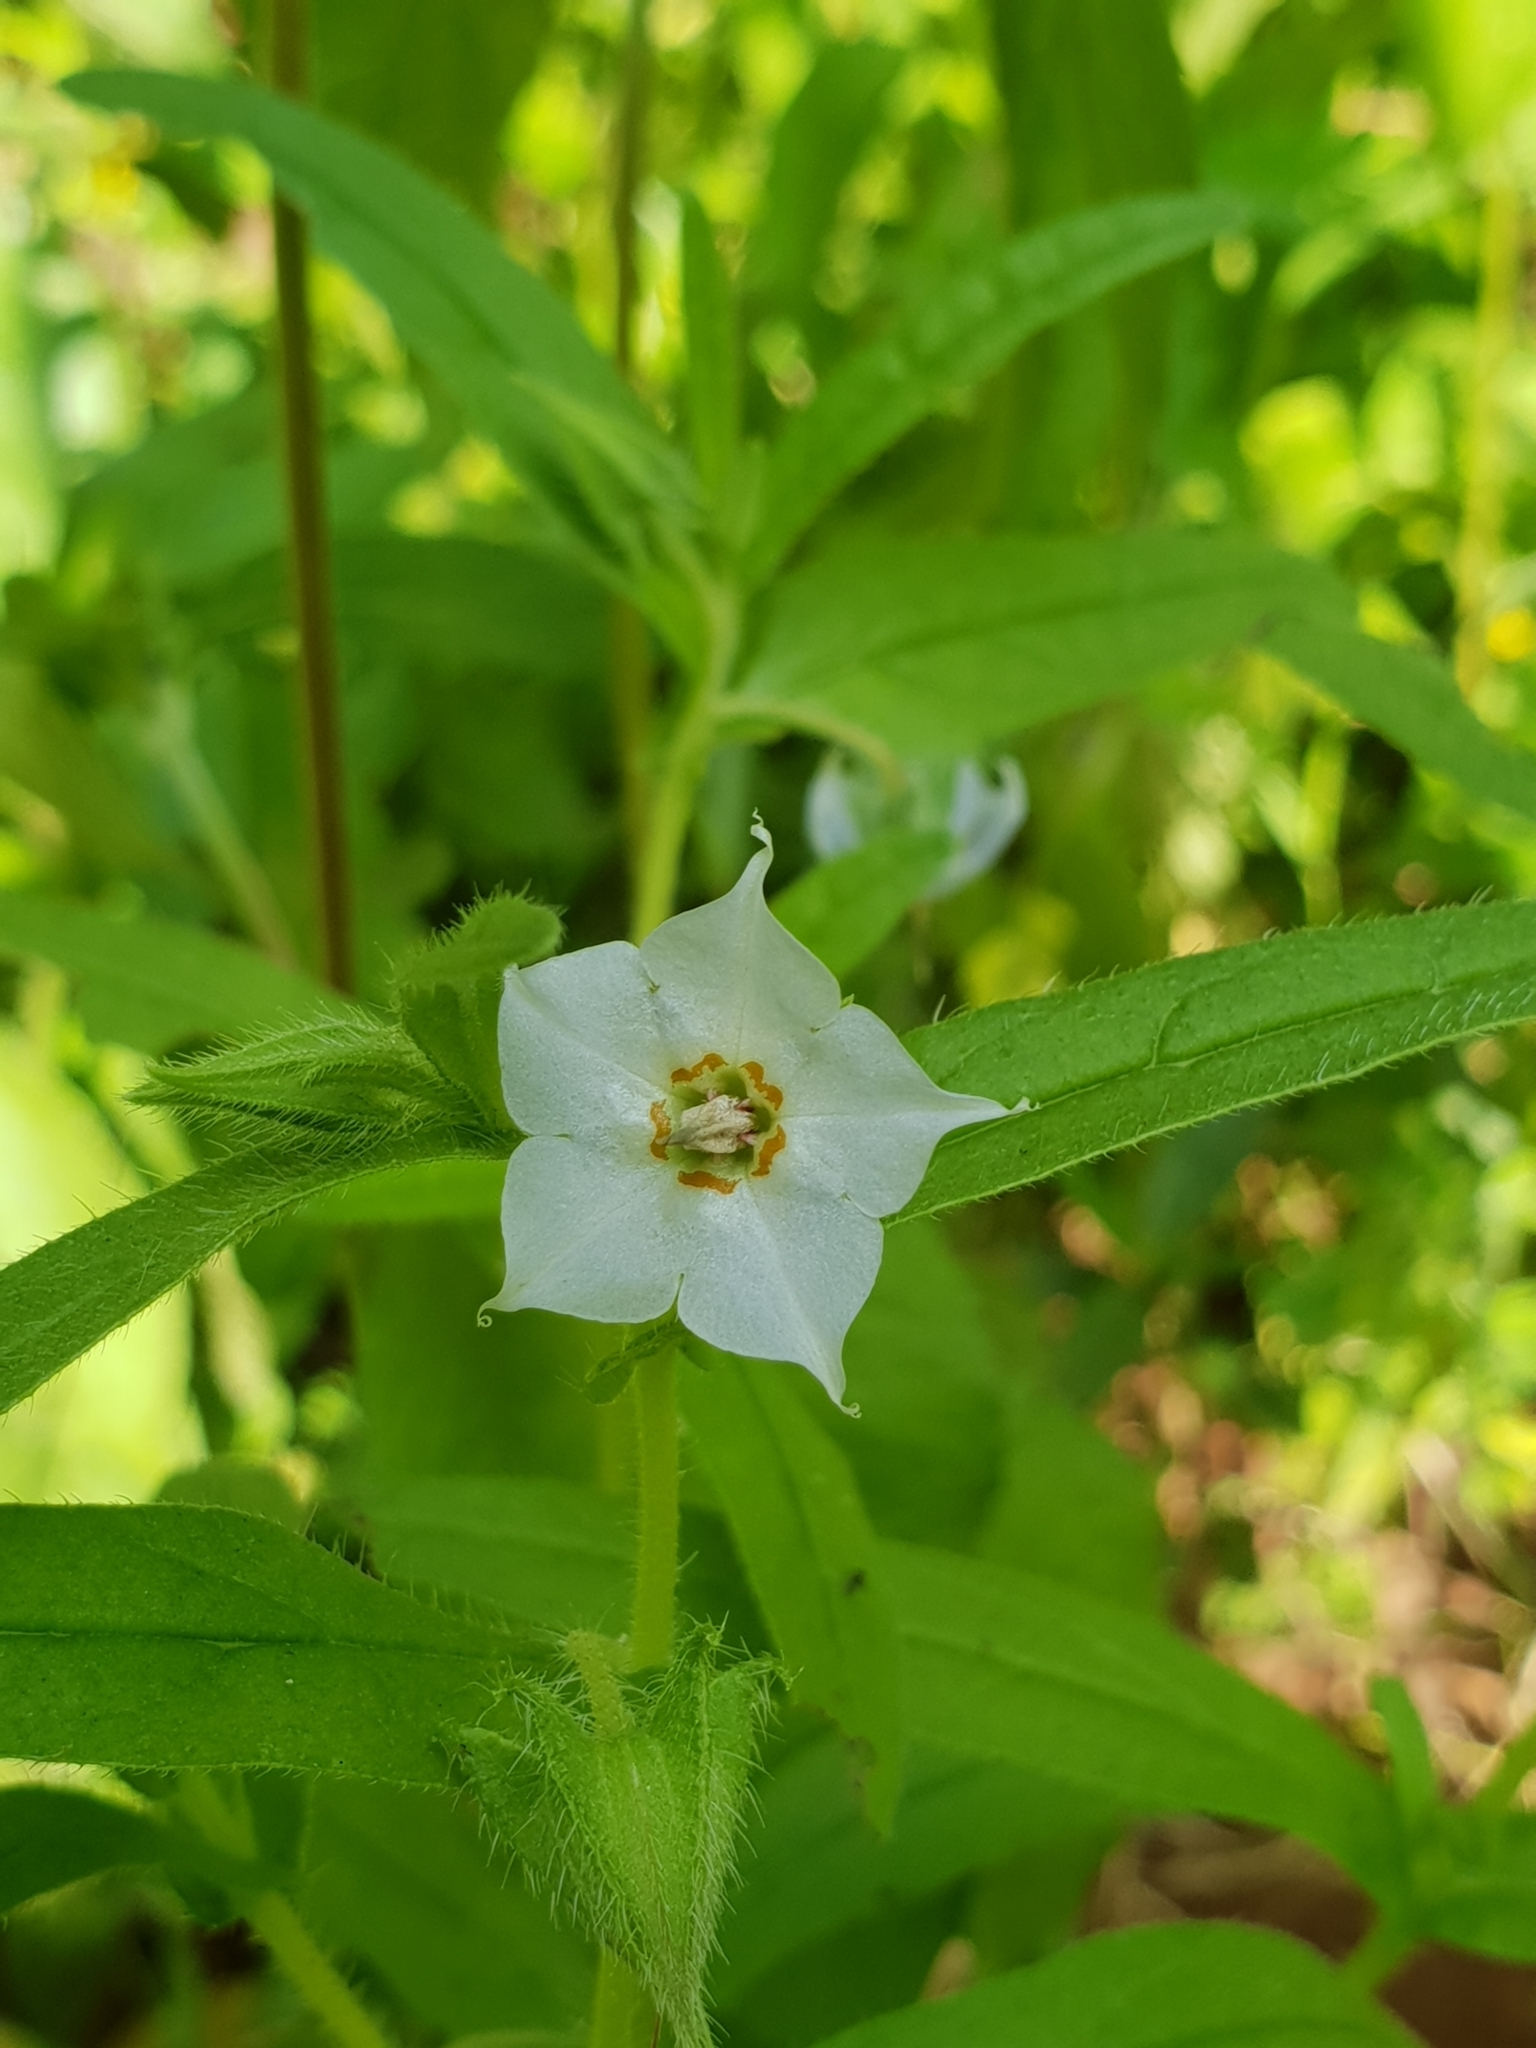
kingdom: Plantae
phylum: Tracheophyta
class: Magnoliopsida
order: Boraginales
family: Boraginaceae
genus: Trichodesma
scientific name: Trichodesma indicum
